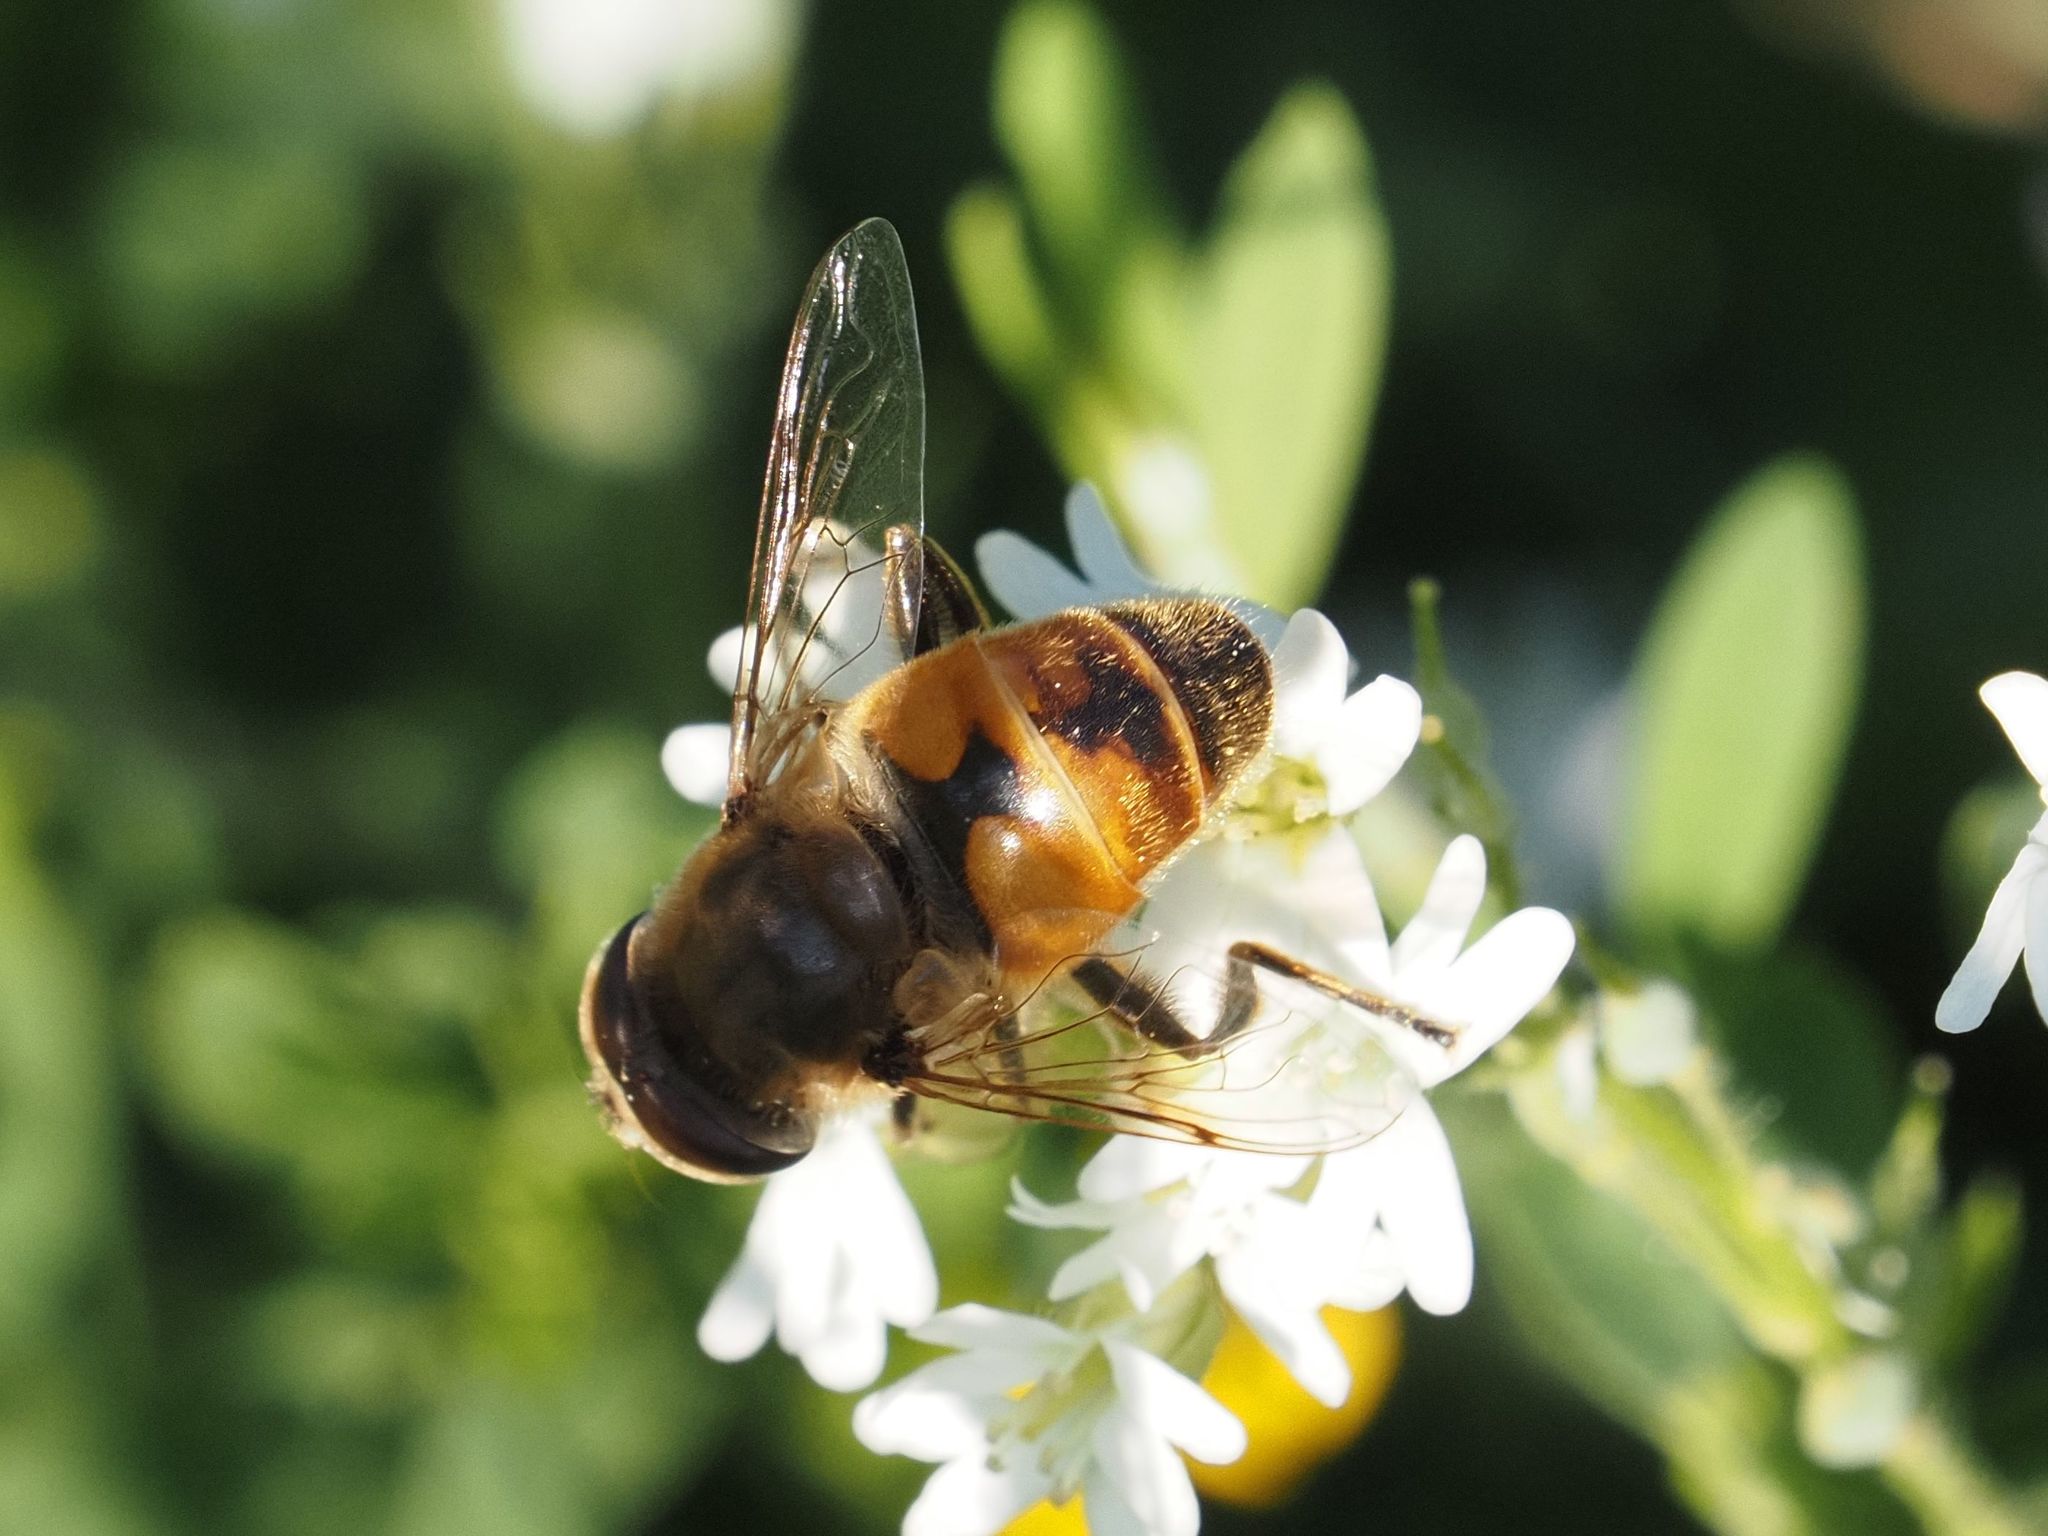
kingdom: Animalia
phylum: Arthropoda
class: Insecta
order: Diptera
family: Syrphidae
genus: Eristalis
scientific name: Eristalis tenax
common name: Drone fly
